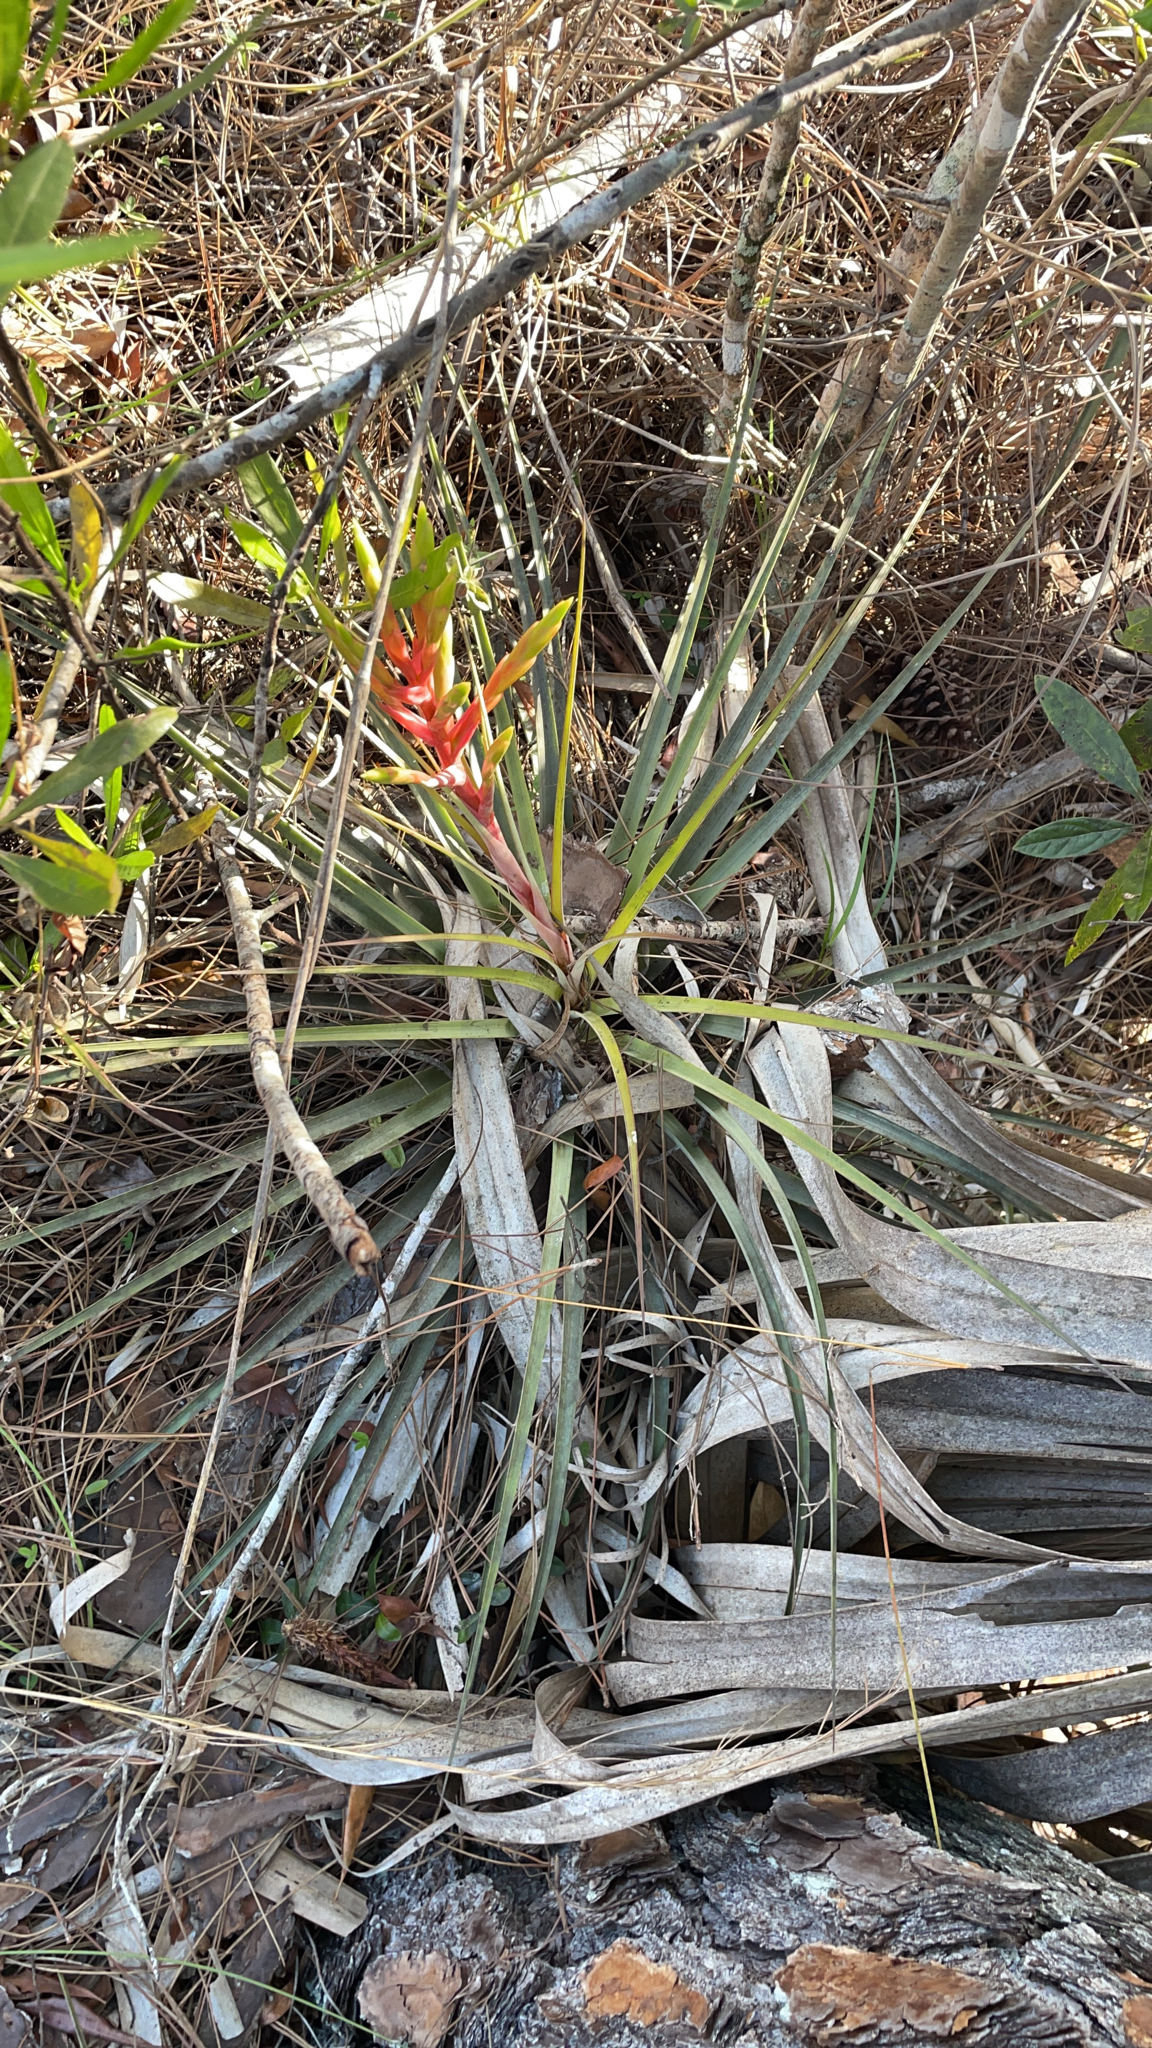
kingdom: Plantae
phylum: Tracheophyta
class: Liliopsida
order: Poales
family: Bromeliaceae
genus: Tillandsia
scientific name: Tillandsia fasciculata
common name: Giant airplant
